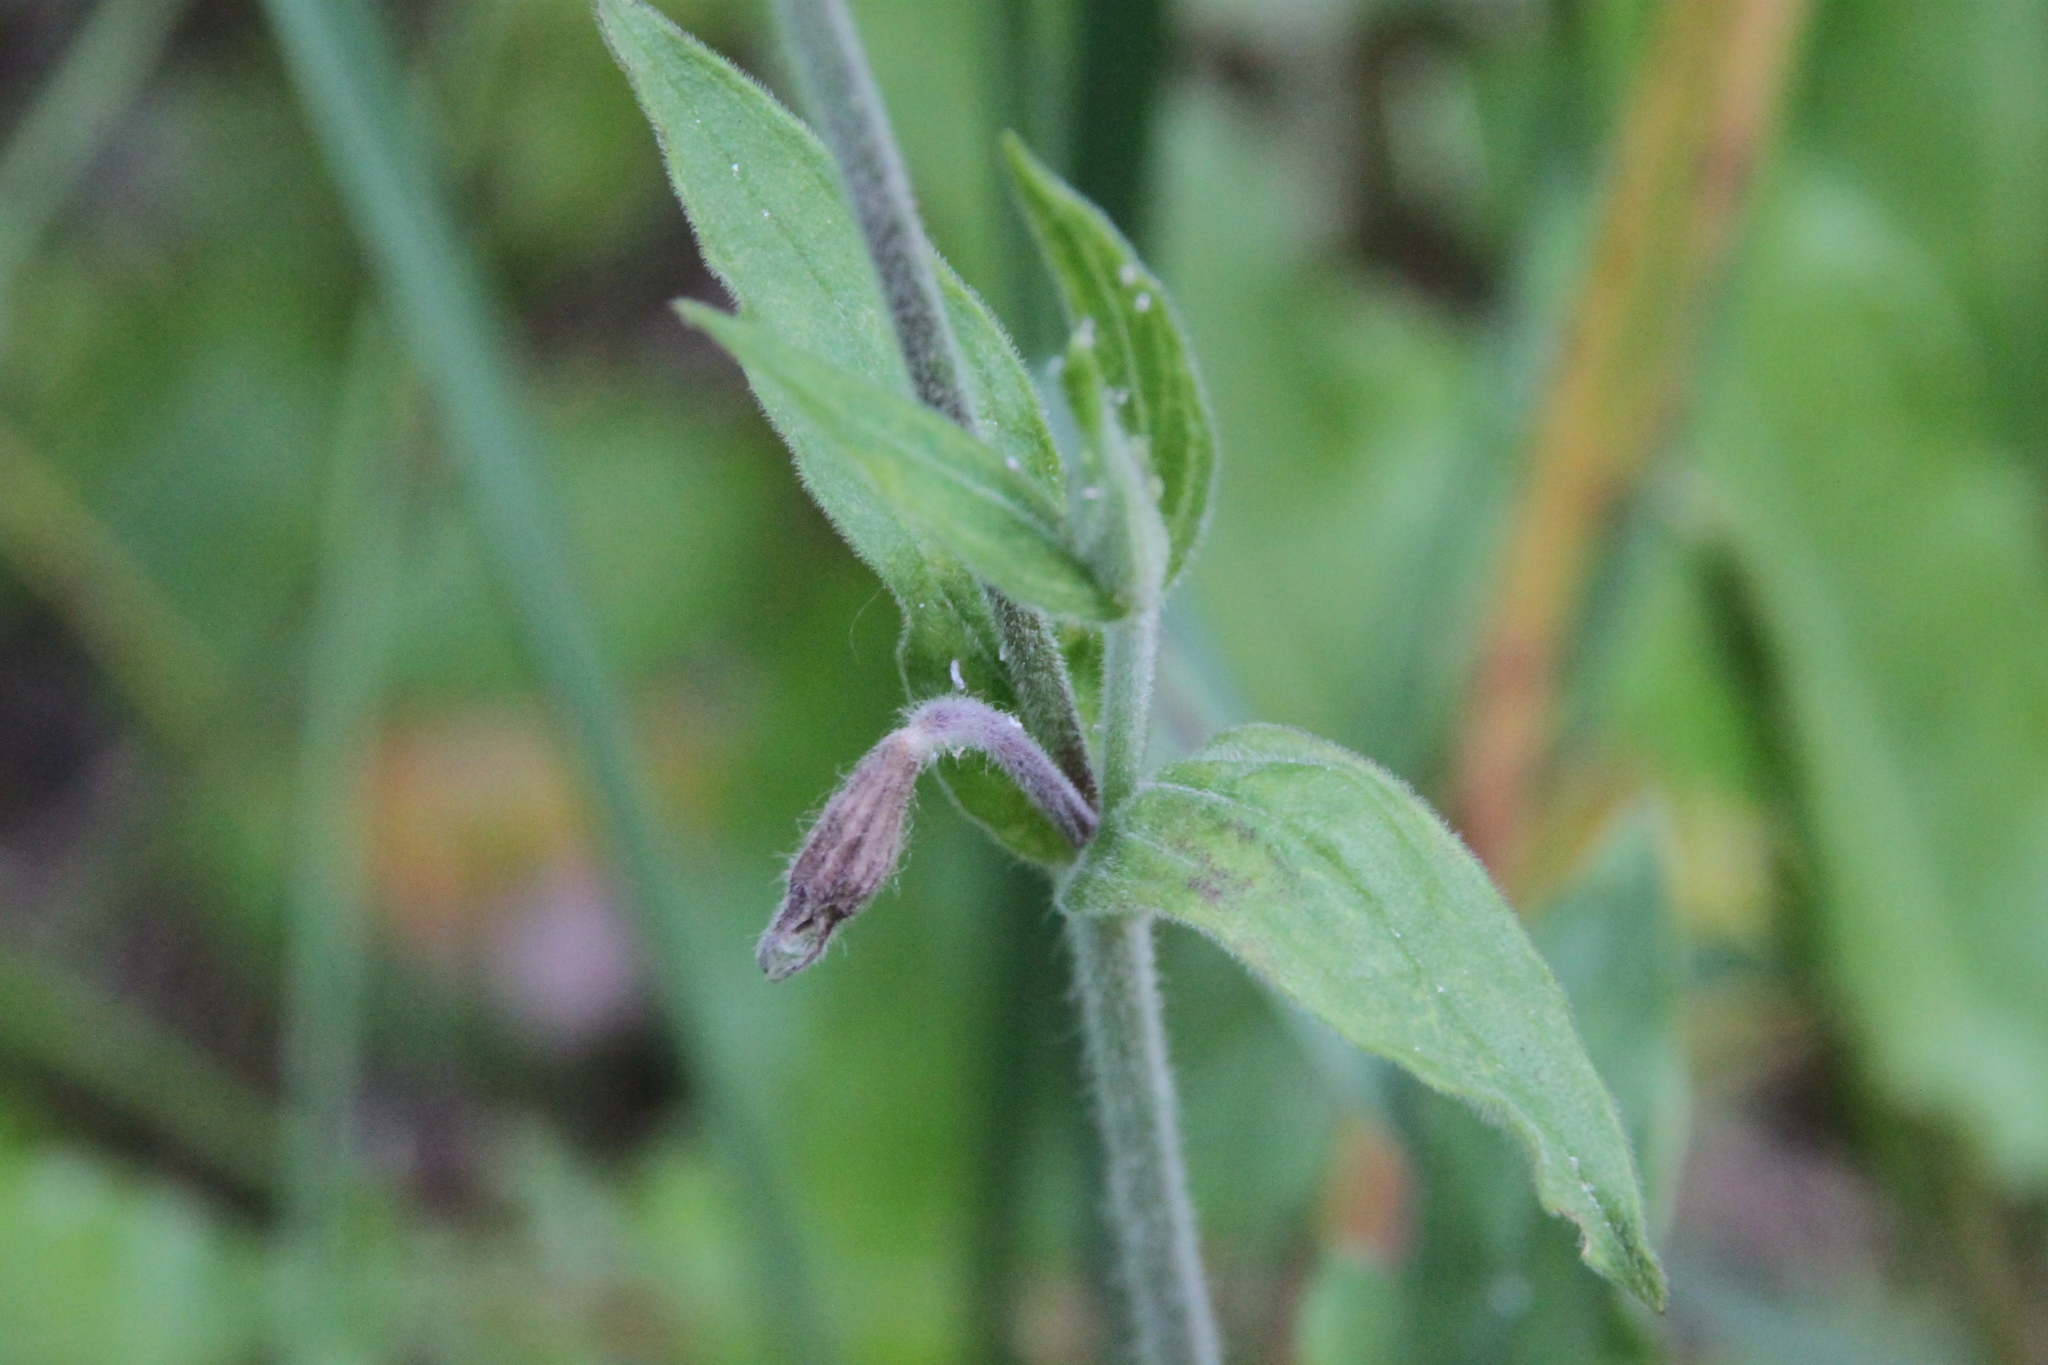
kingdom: Plantae
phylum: Tracheophyta
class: Magnoliopsida
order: Caryophyllales
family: Caryophyllaceae
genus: Silene
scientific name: Silene latifolia
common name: White campion
